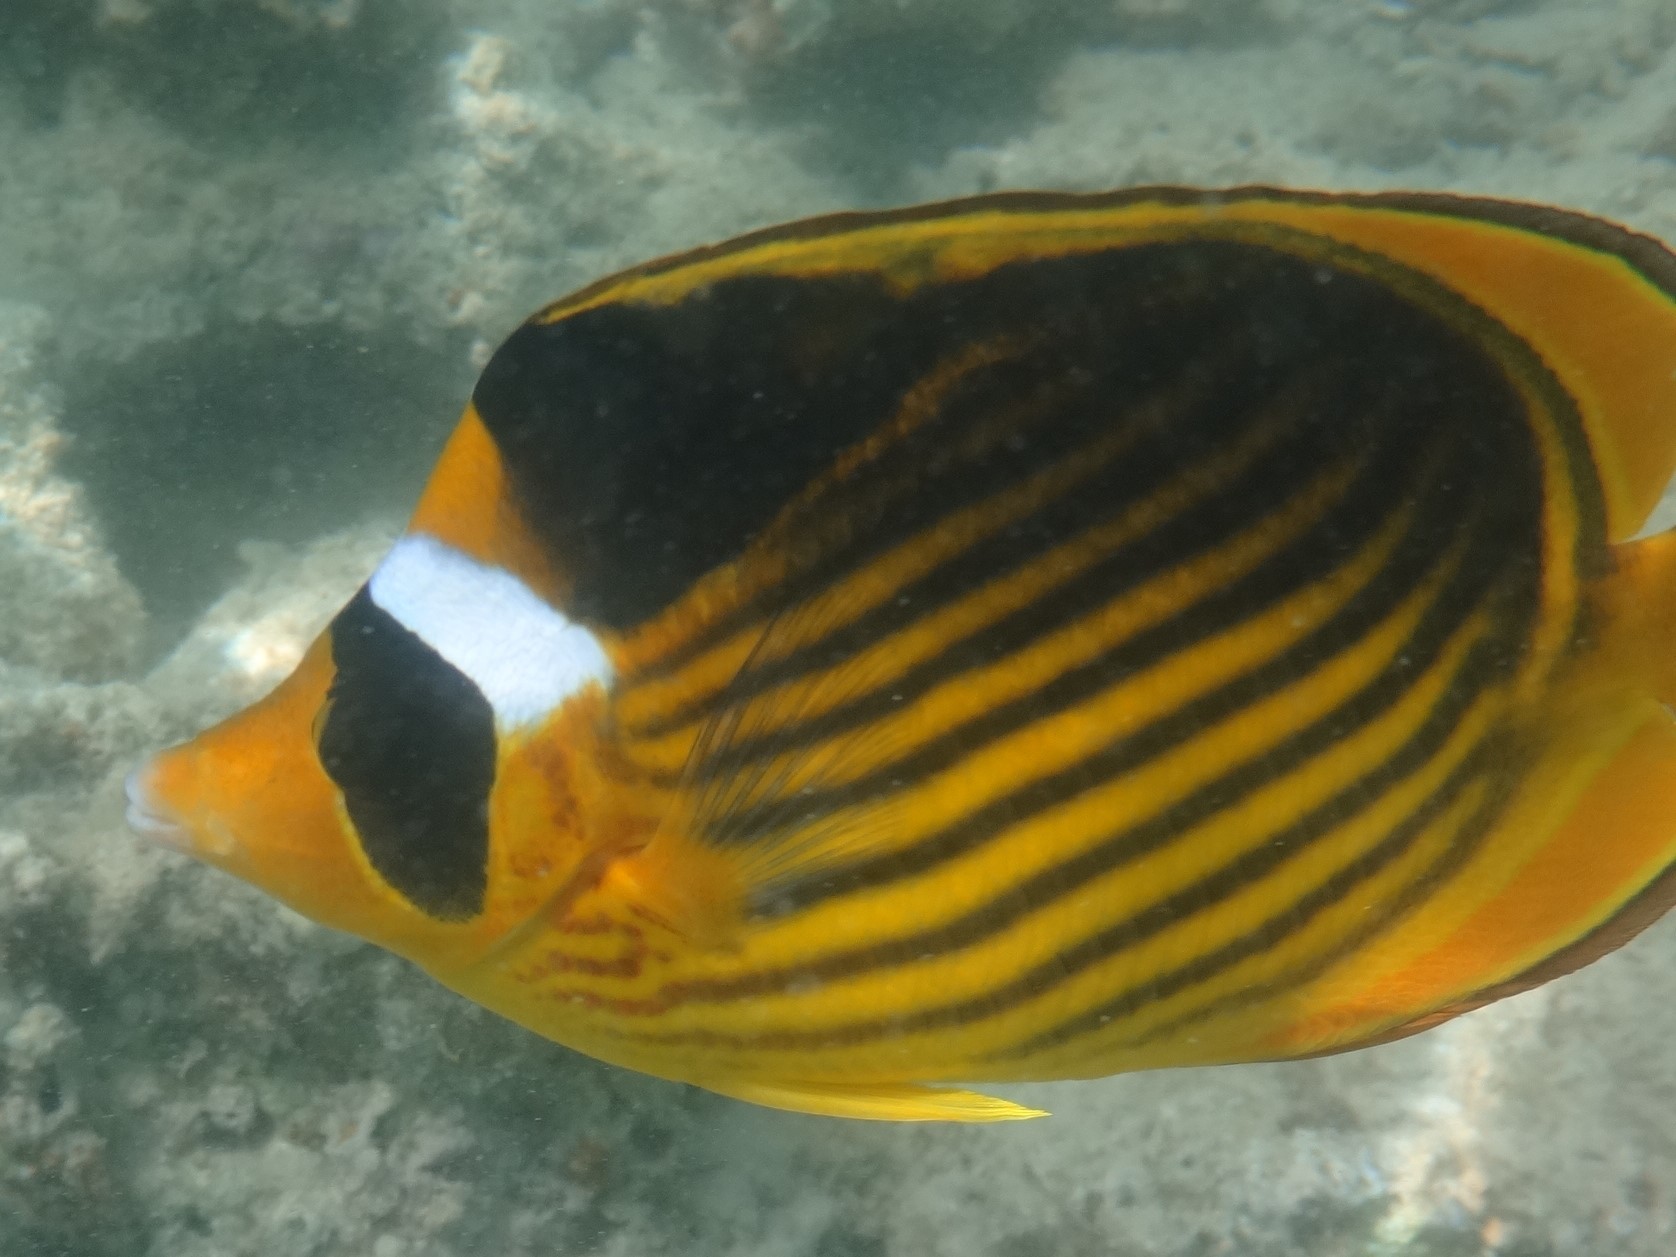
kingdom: Animalia
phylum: Chordata
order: Perciformes
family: Chaetodontidae
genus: Chaetodon
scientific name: Chaetodon fasciatus
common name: Diagonal butterflyfish
